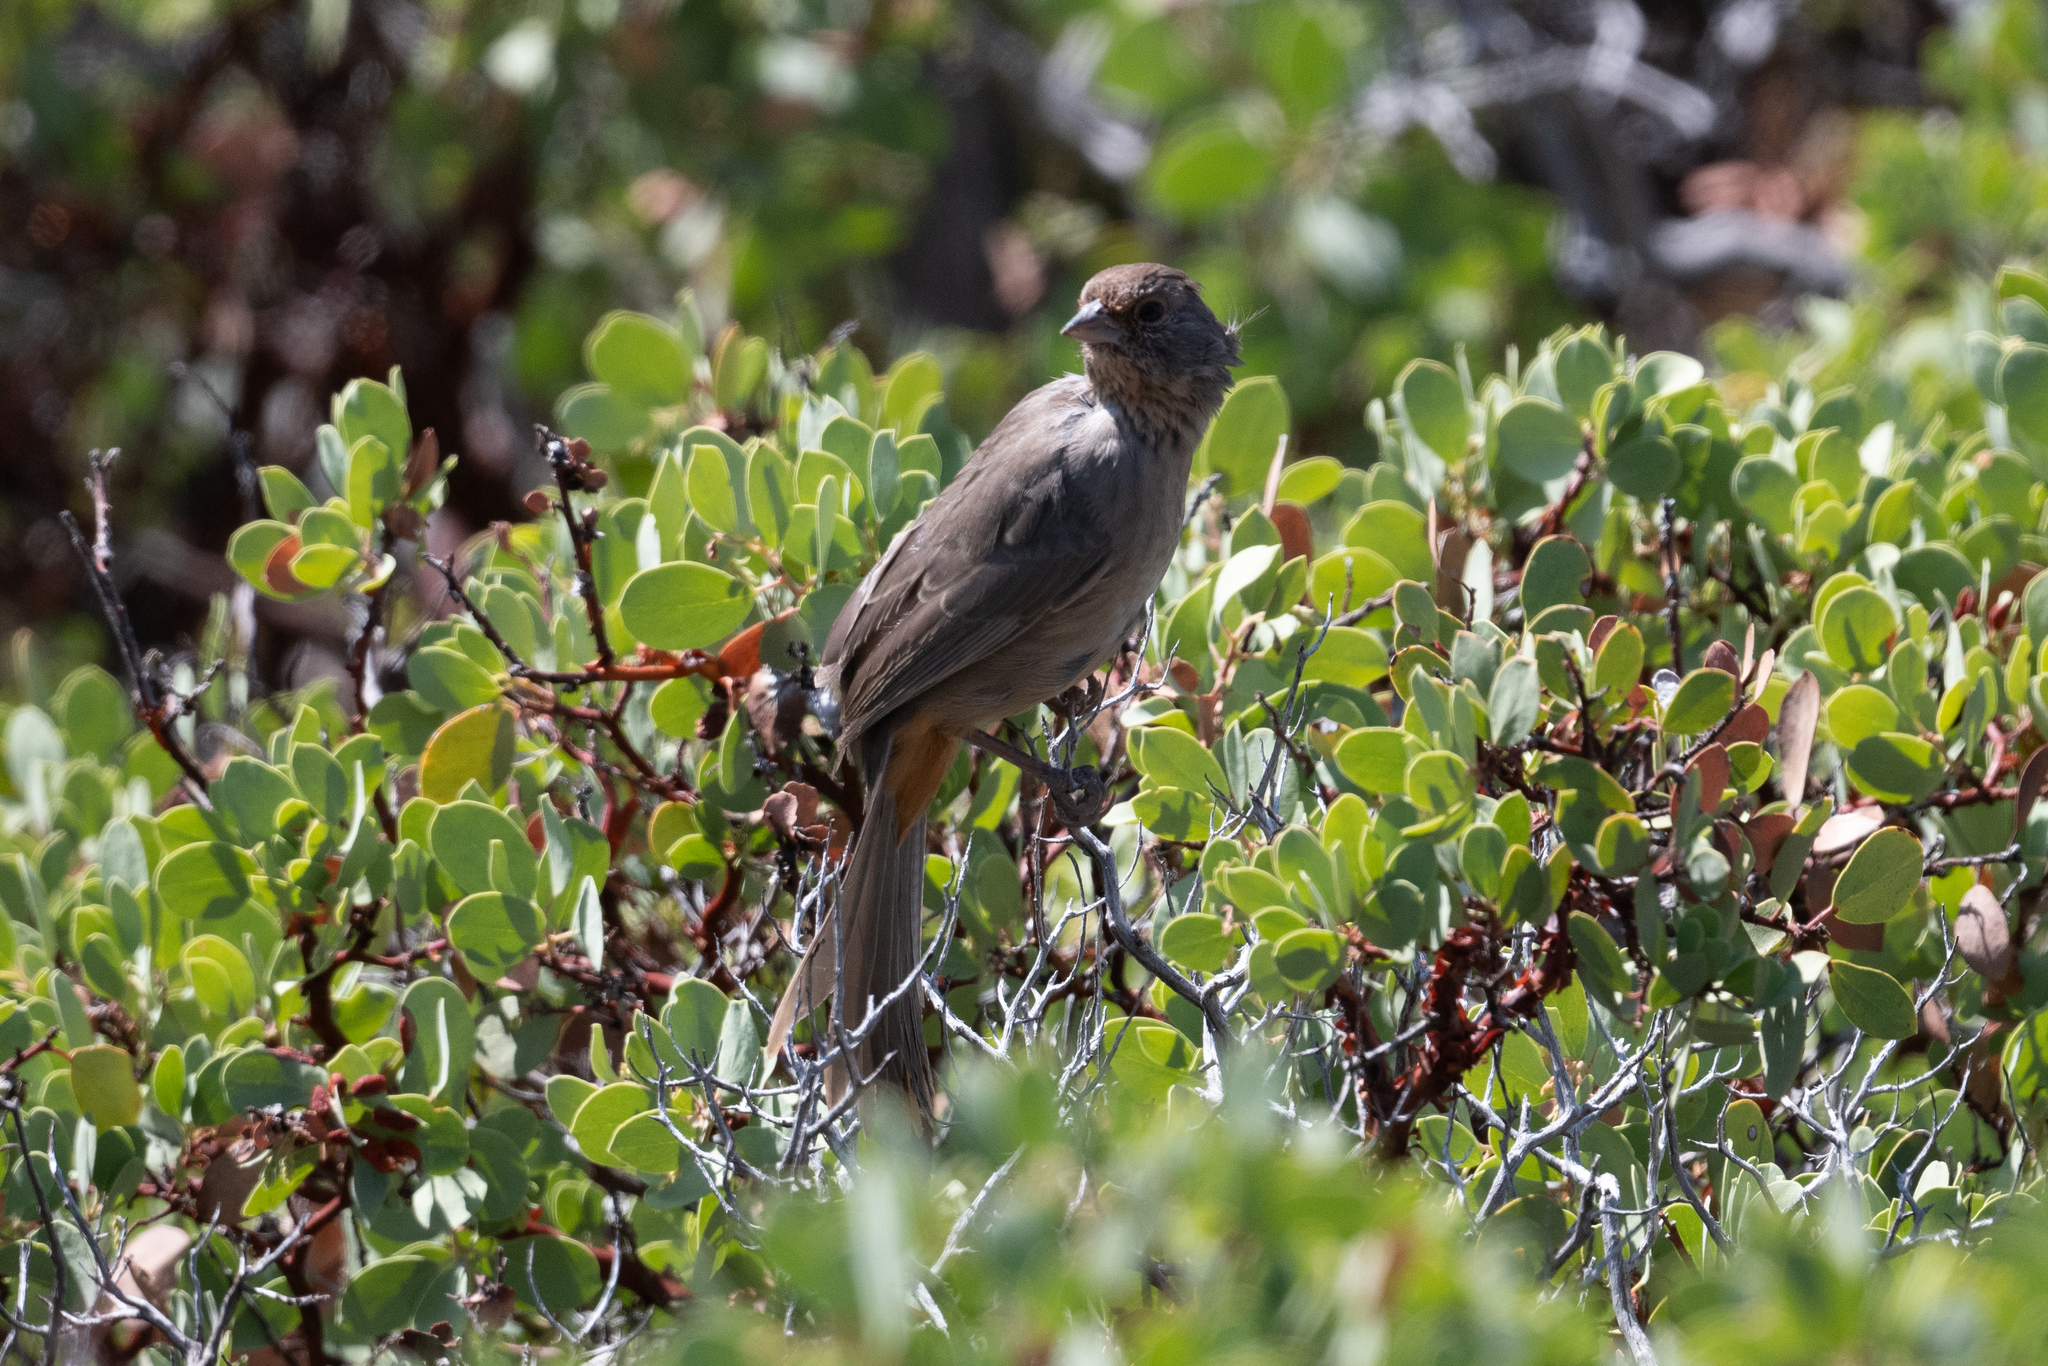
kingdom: Animalia
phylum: Chordata
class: Aves
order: Passeriformes
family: Passerellidae
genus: Melozone
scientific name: Melozone crissalis
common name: California towhee
